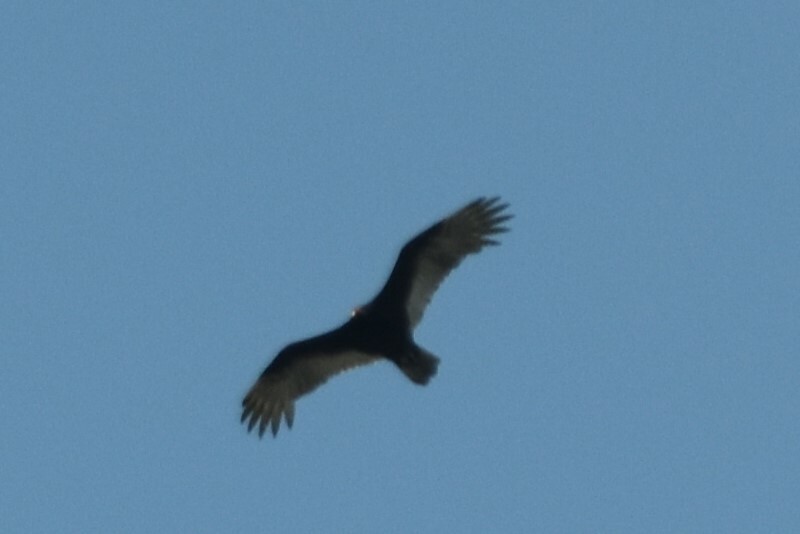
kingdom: Animalia
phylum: Chordata
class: Aves
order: Accipitriformes
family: Cathartidae
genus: Cathartes
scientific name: Cathartes aura
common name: Turkey vulture
